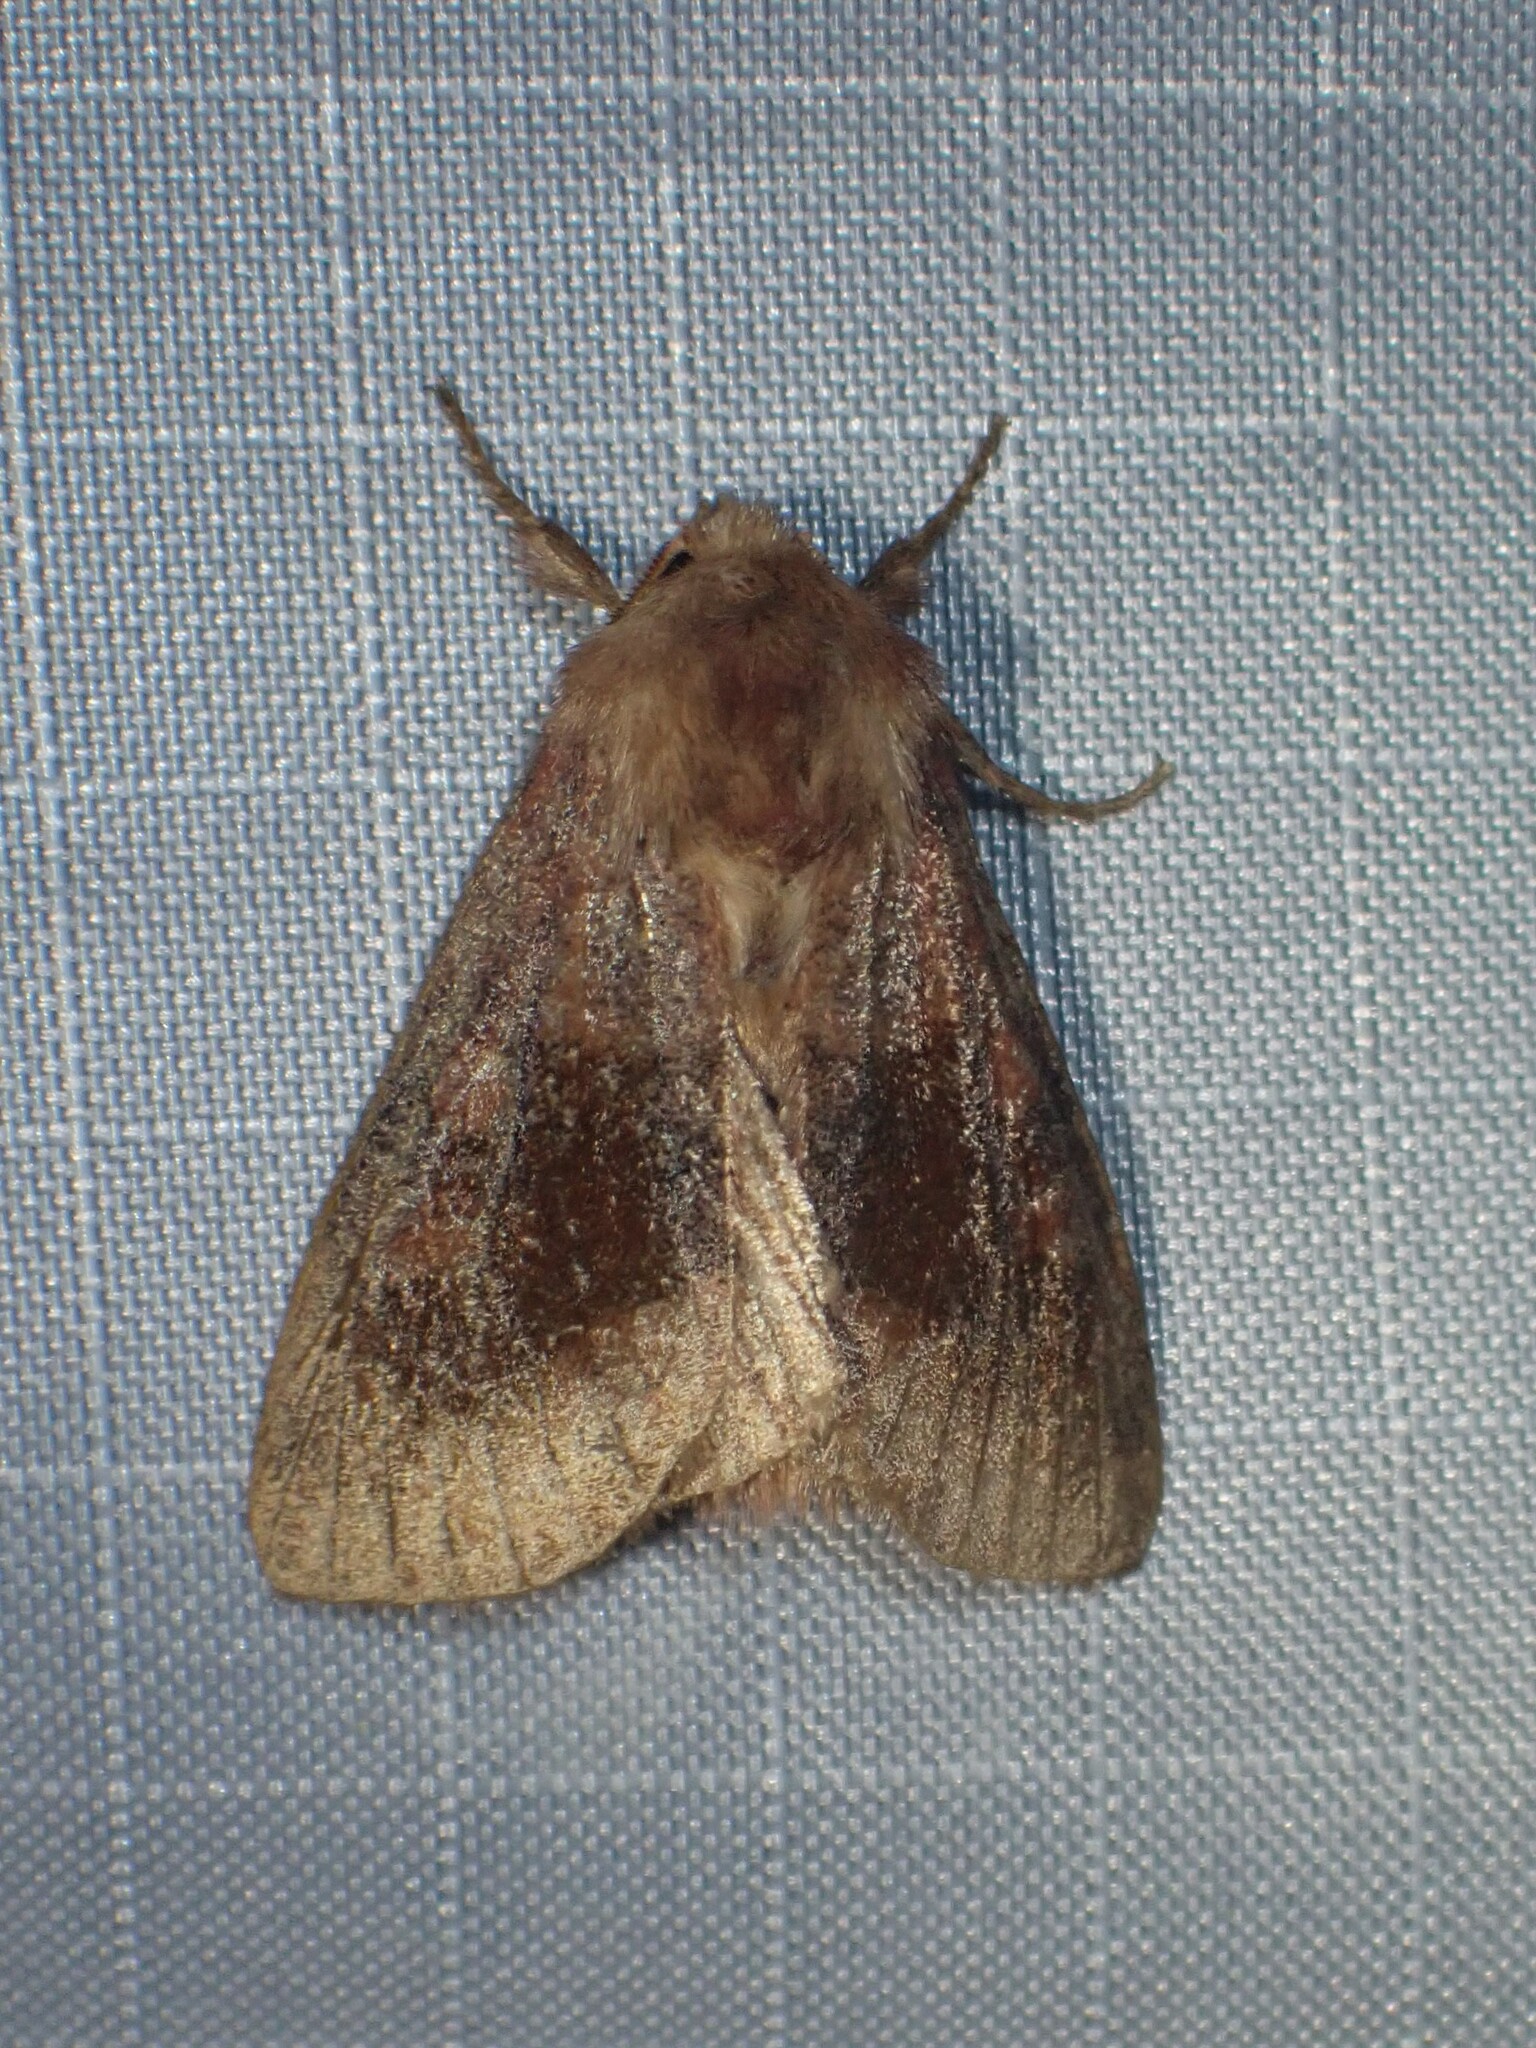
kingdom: Animalia
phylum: Arthropoda
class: Insecta
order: Lepidoptera
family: Noctuidae
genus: Nephelodes
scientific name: Nephelodes minians
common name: Bronzed cutworm
